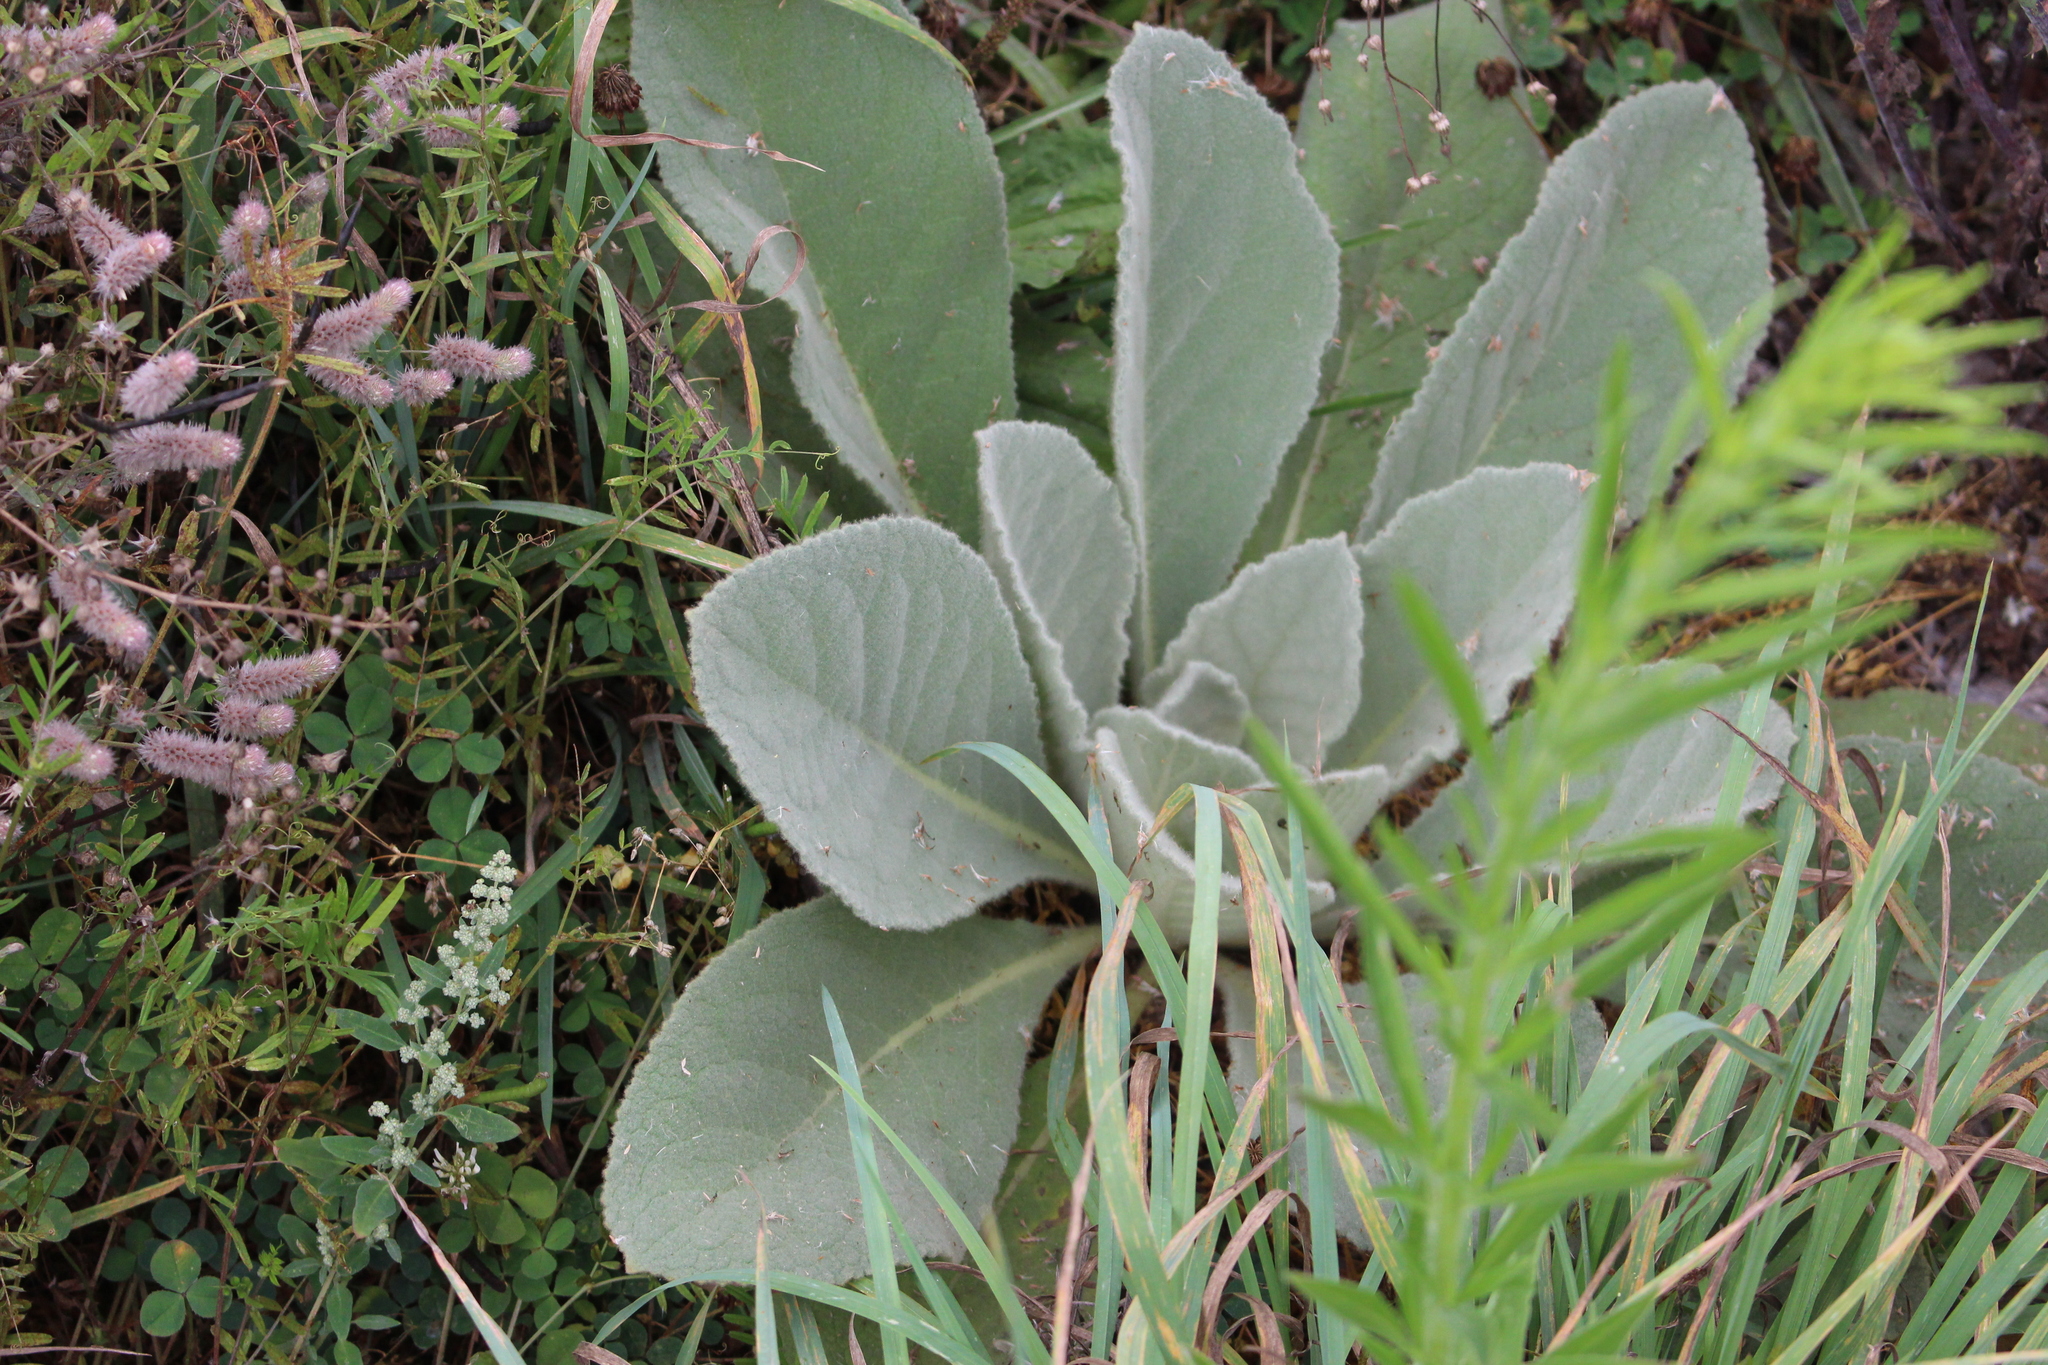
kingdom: Plantae
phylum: Tracheophyta
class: Magnoliopsida
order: Lamiales
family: Scrophulariaceae
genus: Verbascum
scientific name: Verbascum thapsus
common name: Common mullein
